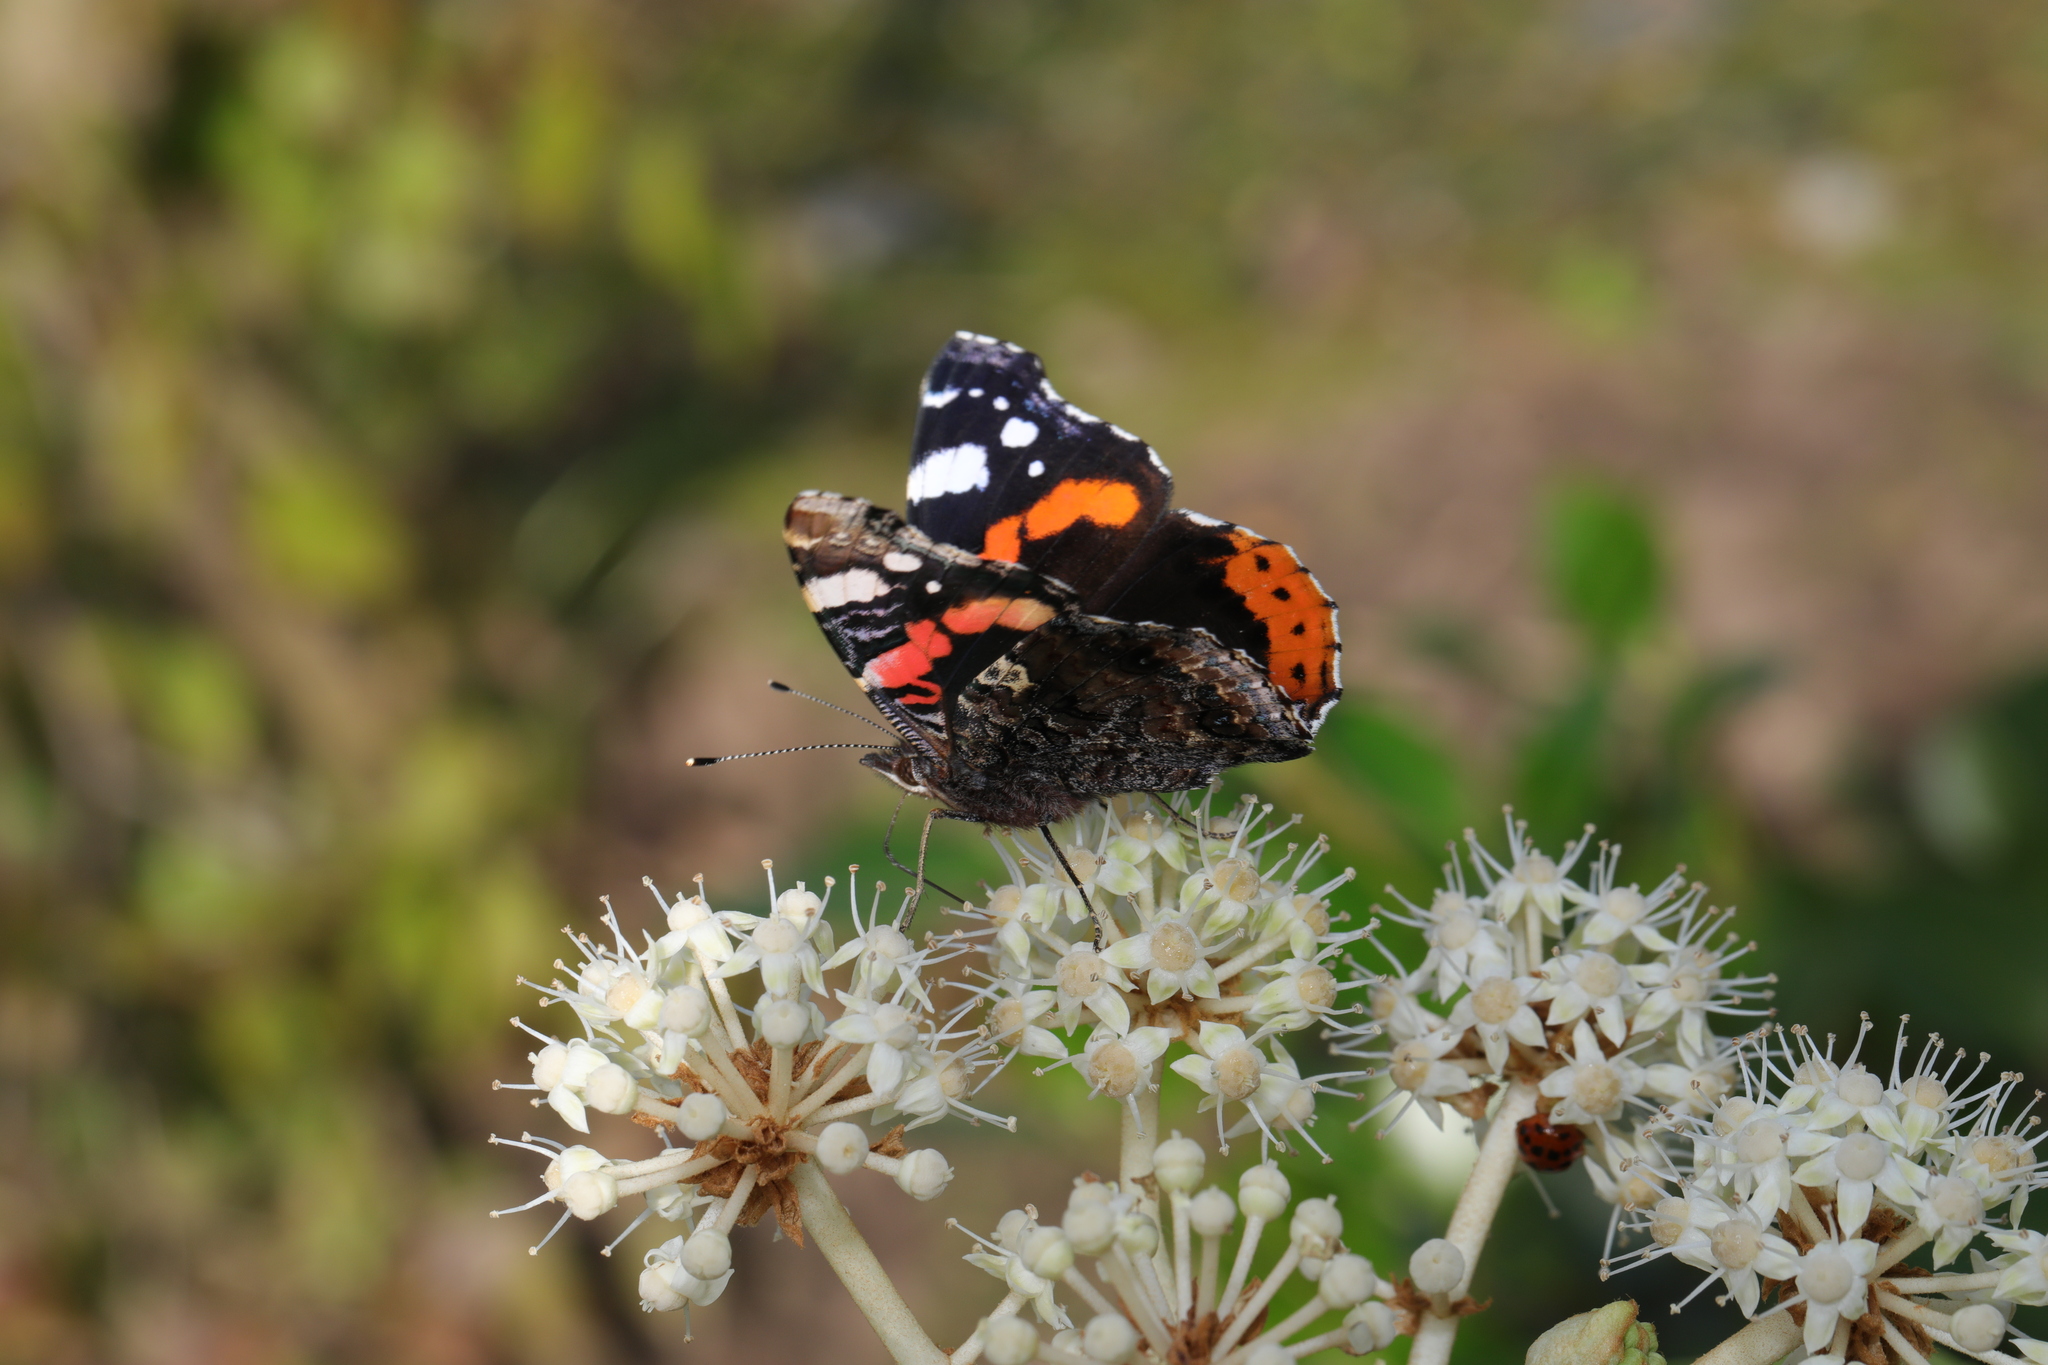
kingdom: Animalia
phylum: Arthropoda
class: Insecta
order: Lepidoptera
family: Nymphalidae
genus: Vanessa
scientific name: Vanessa atalanta
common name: Red admiral
